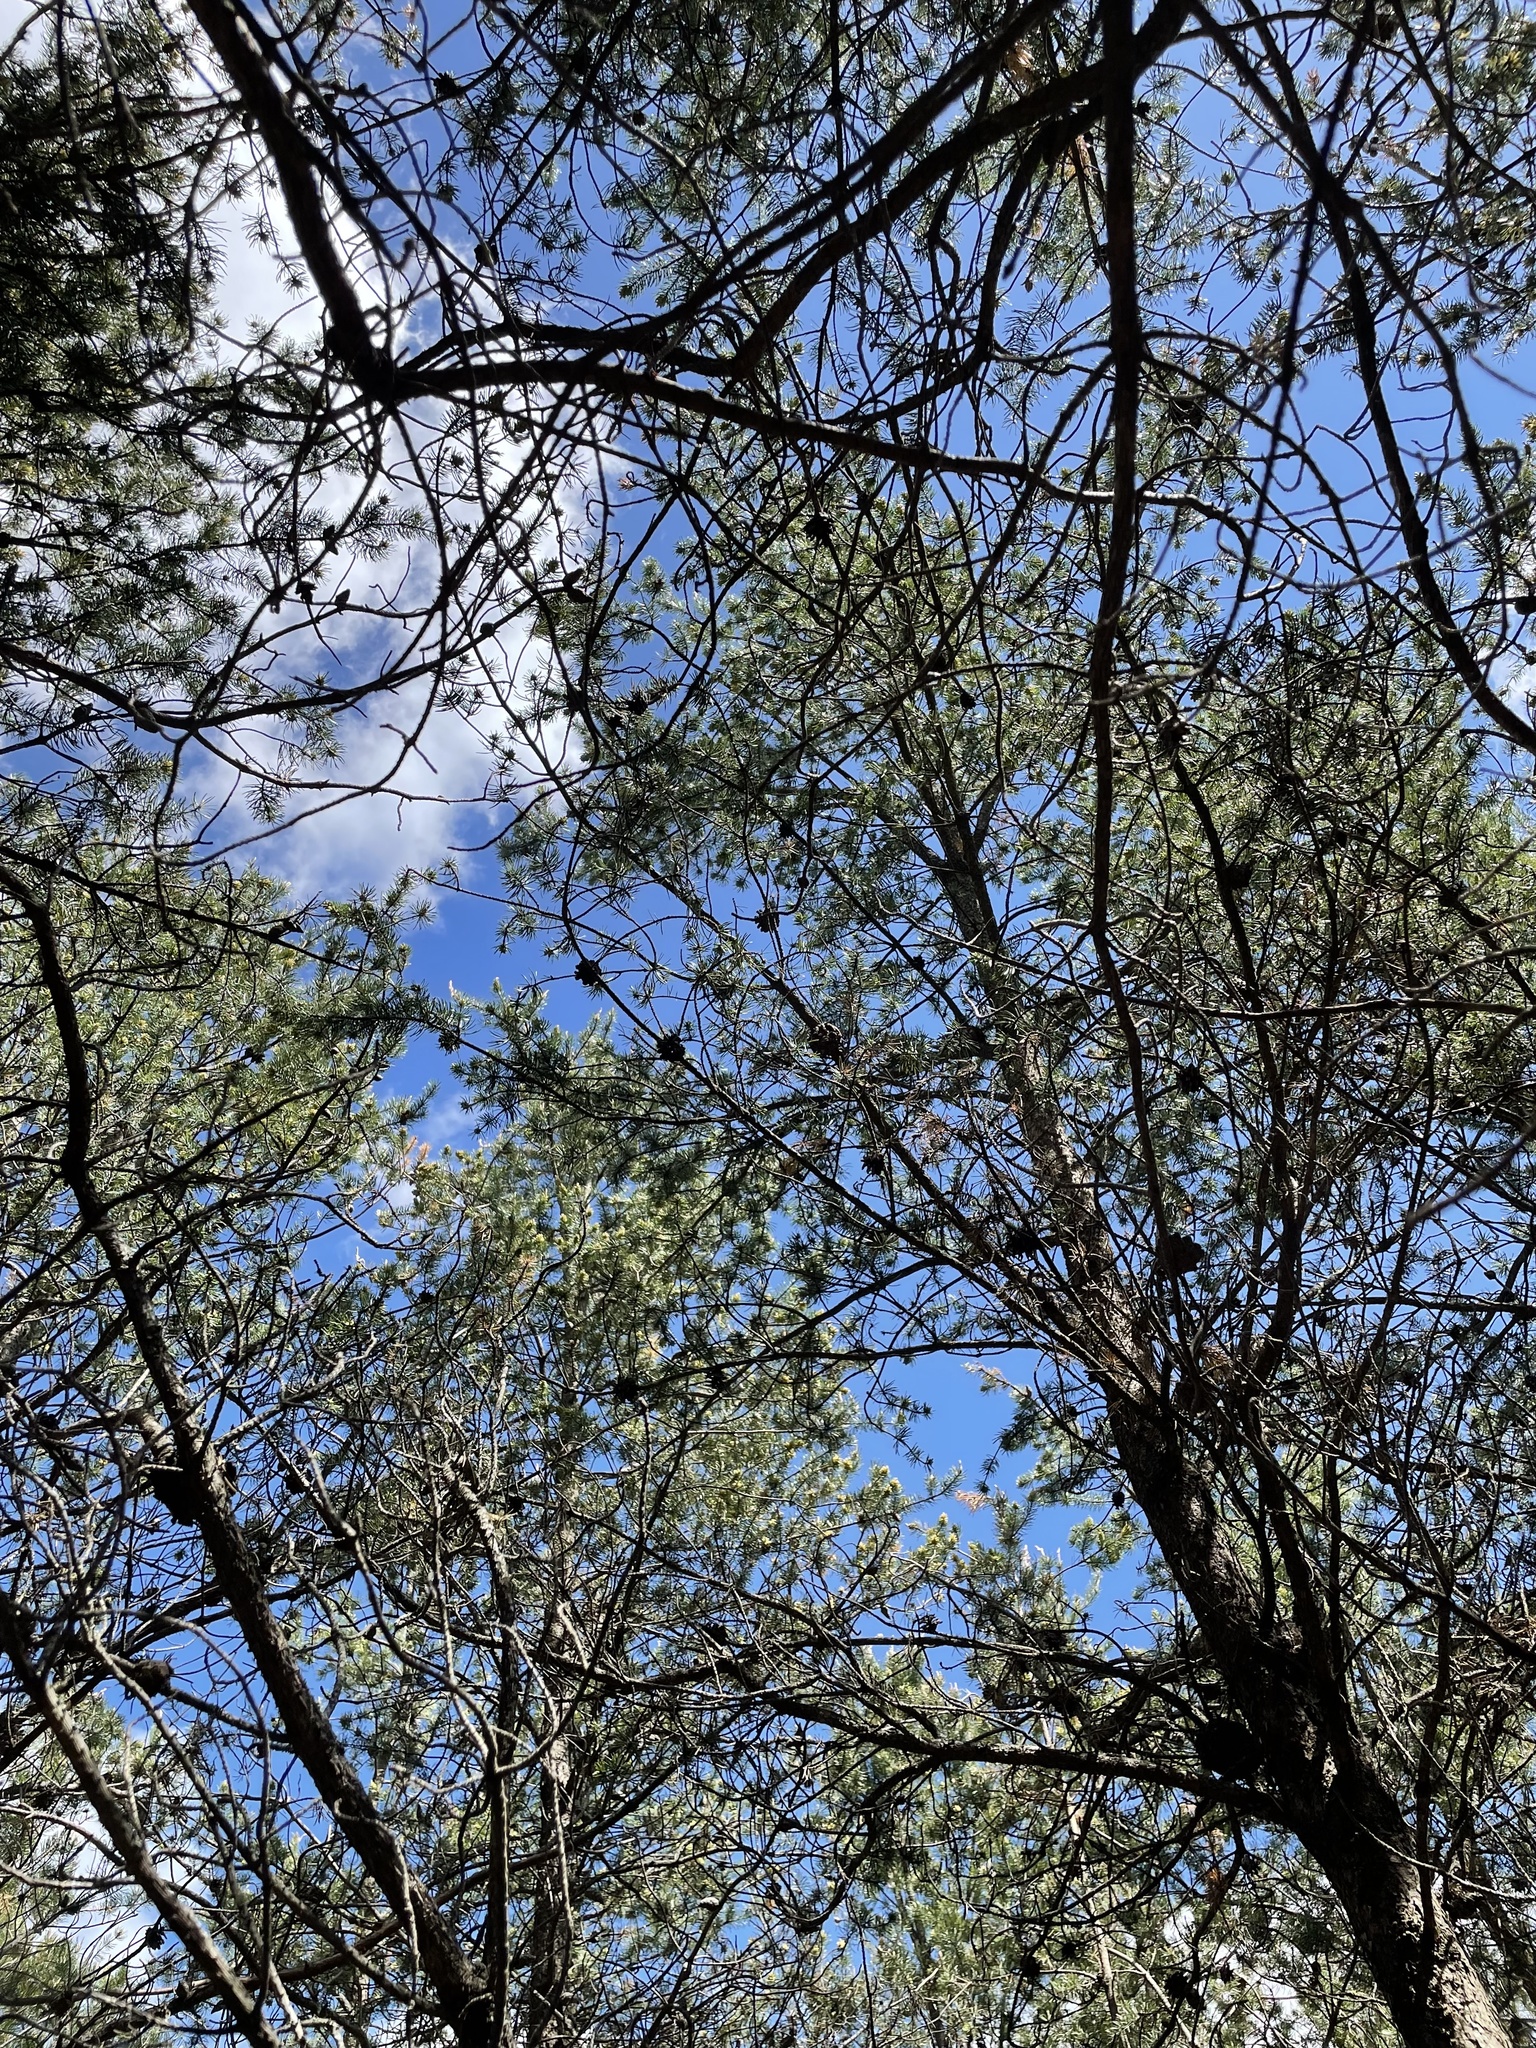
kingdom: Plantae
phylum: Tracheophyta
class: Pinopsida
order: Pinales
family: Pinaceae
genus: Pinus
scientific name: Pinus banksiana
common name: Jack pine
